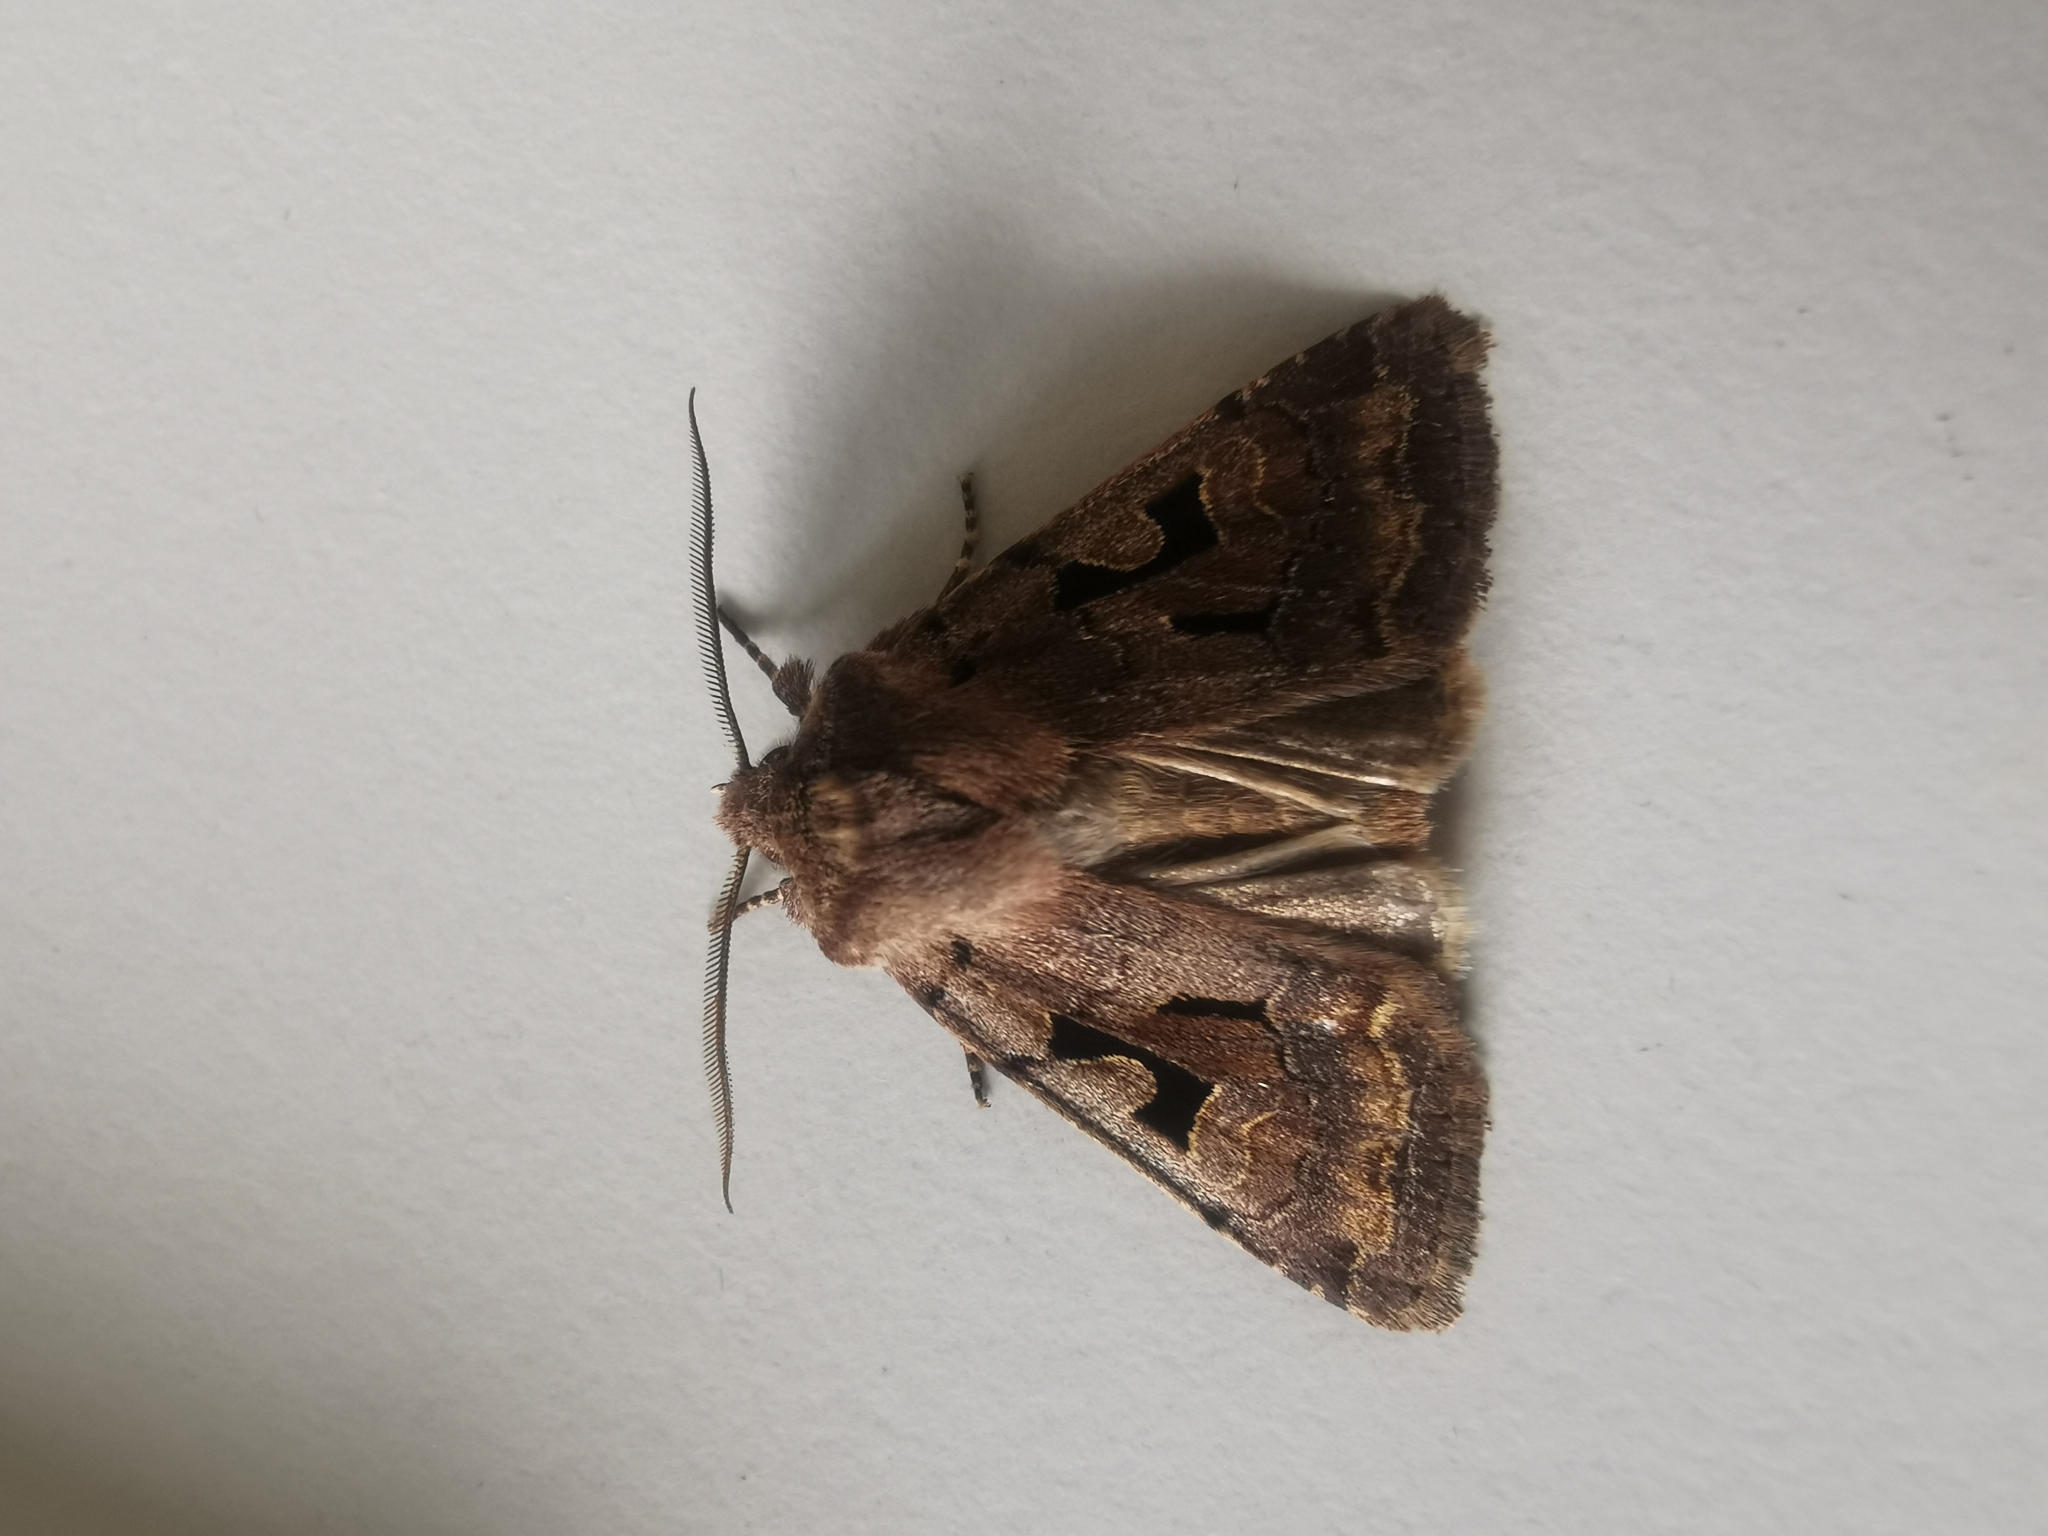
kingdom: Animalia
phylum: Arthropoda
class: Insecta
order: Lepidoptera
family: Noctuidae
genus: Orthosia
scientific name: Orthosia gothica
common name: Hebrew character
